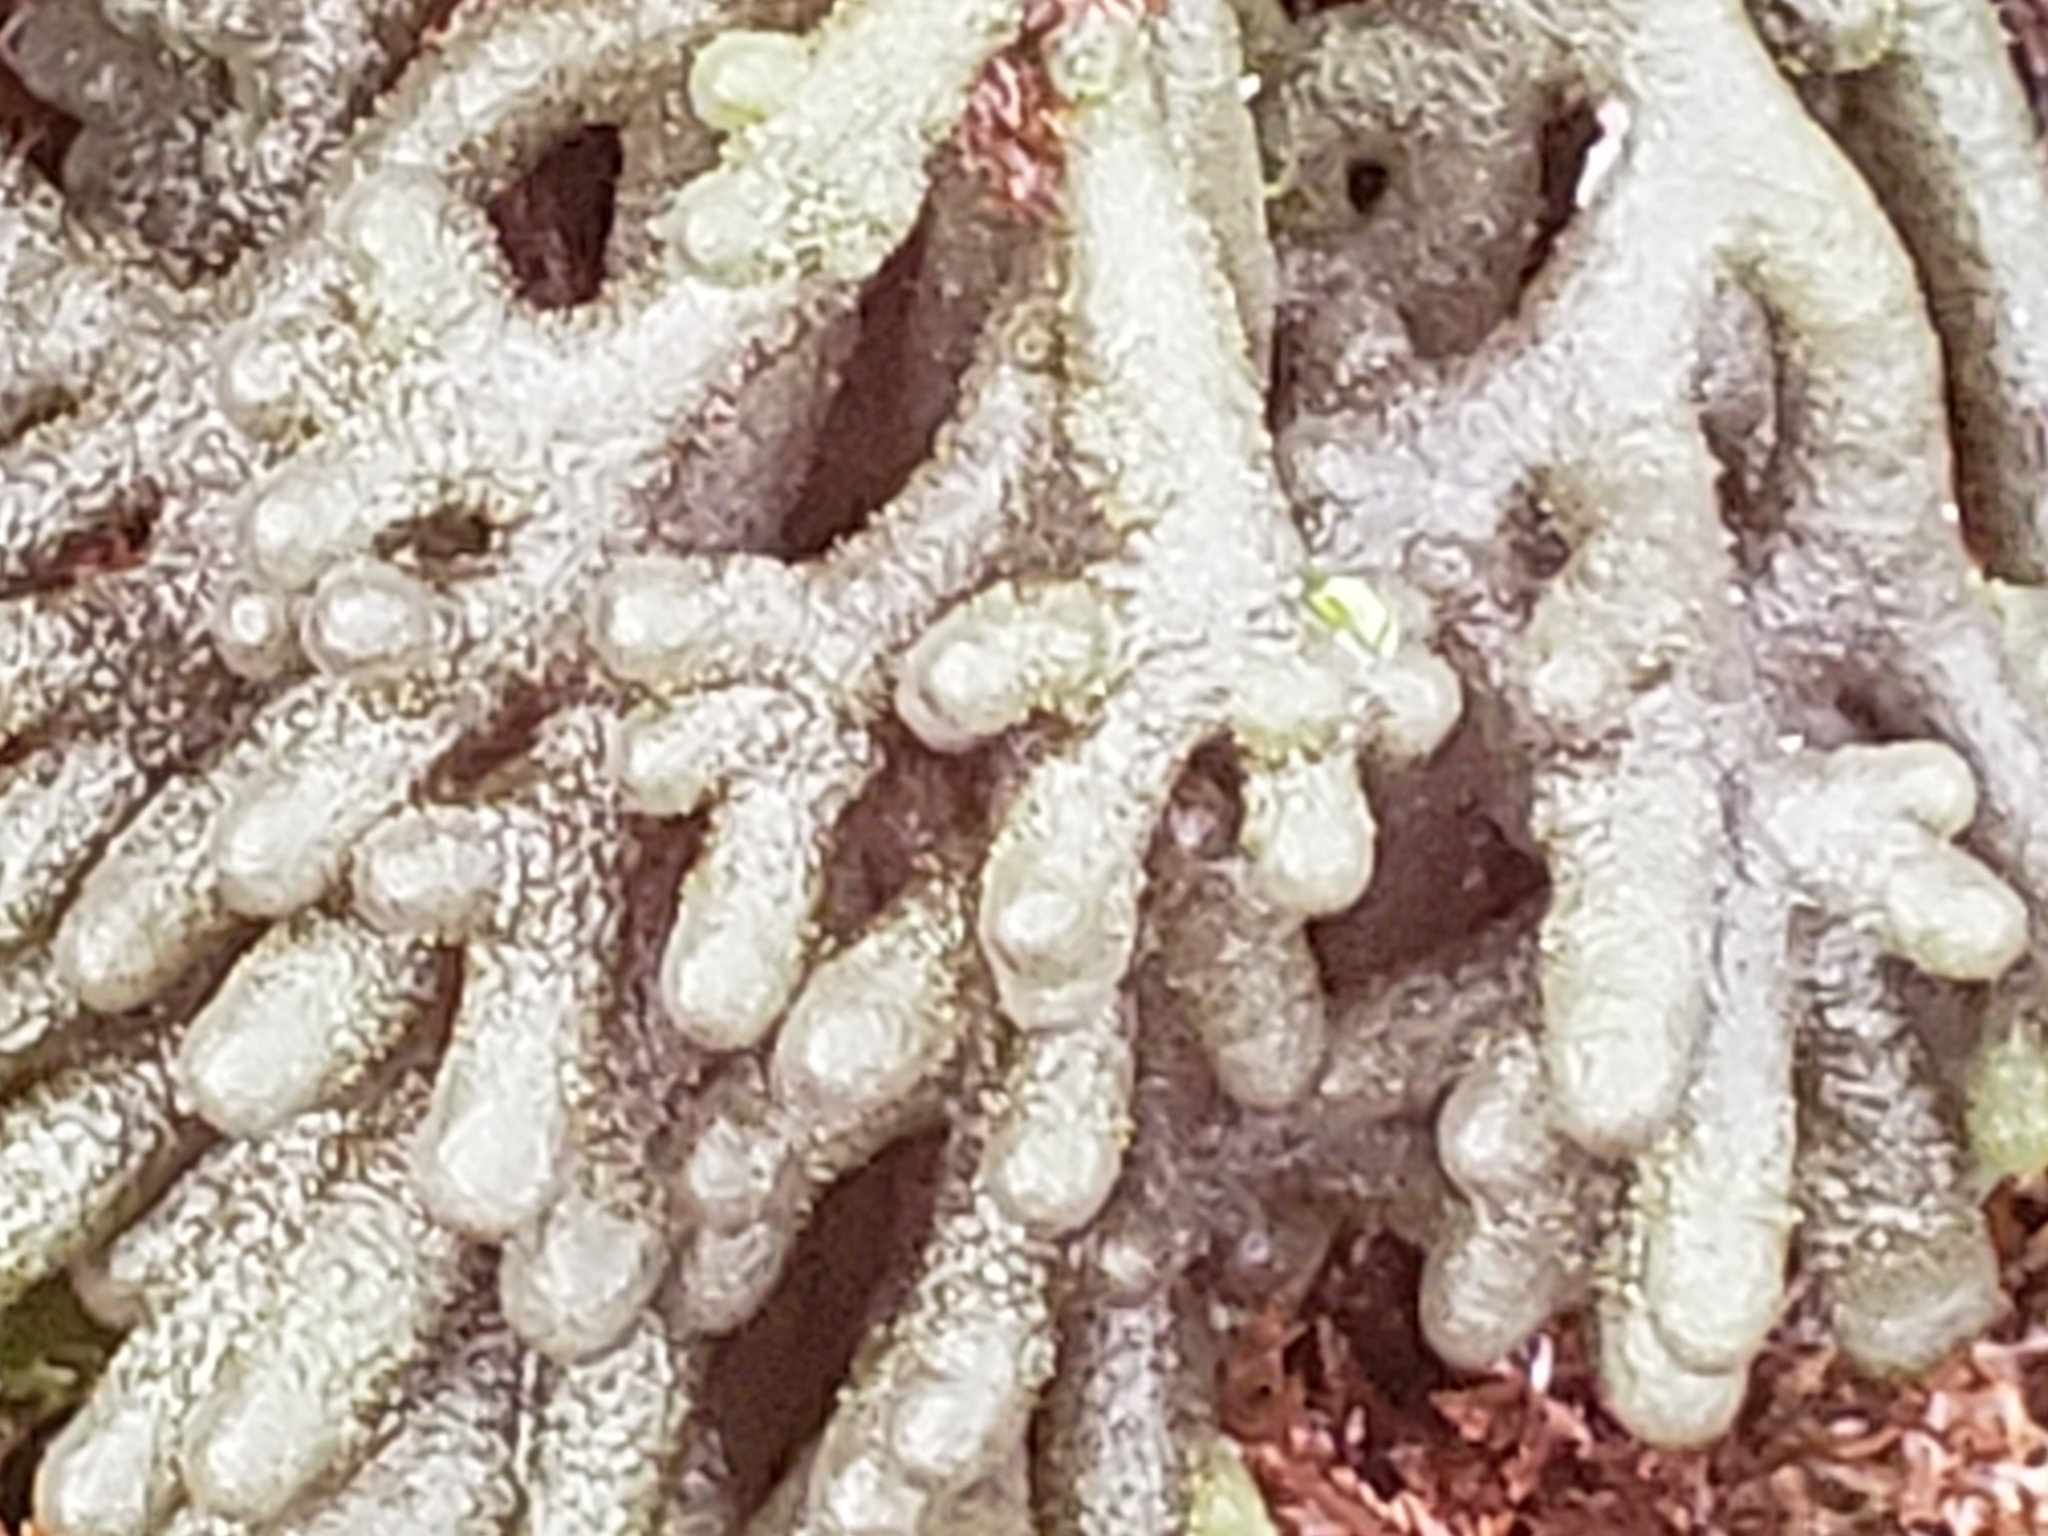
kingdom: Plantae
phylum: Chlorophyta
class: Ulvophyceae
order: Bryopsidales
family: Codiaceae
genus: Codium
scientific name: Codium fragile
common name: Dead man's fingers
